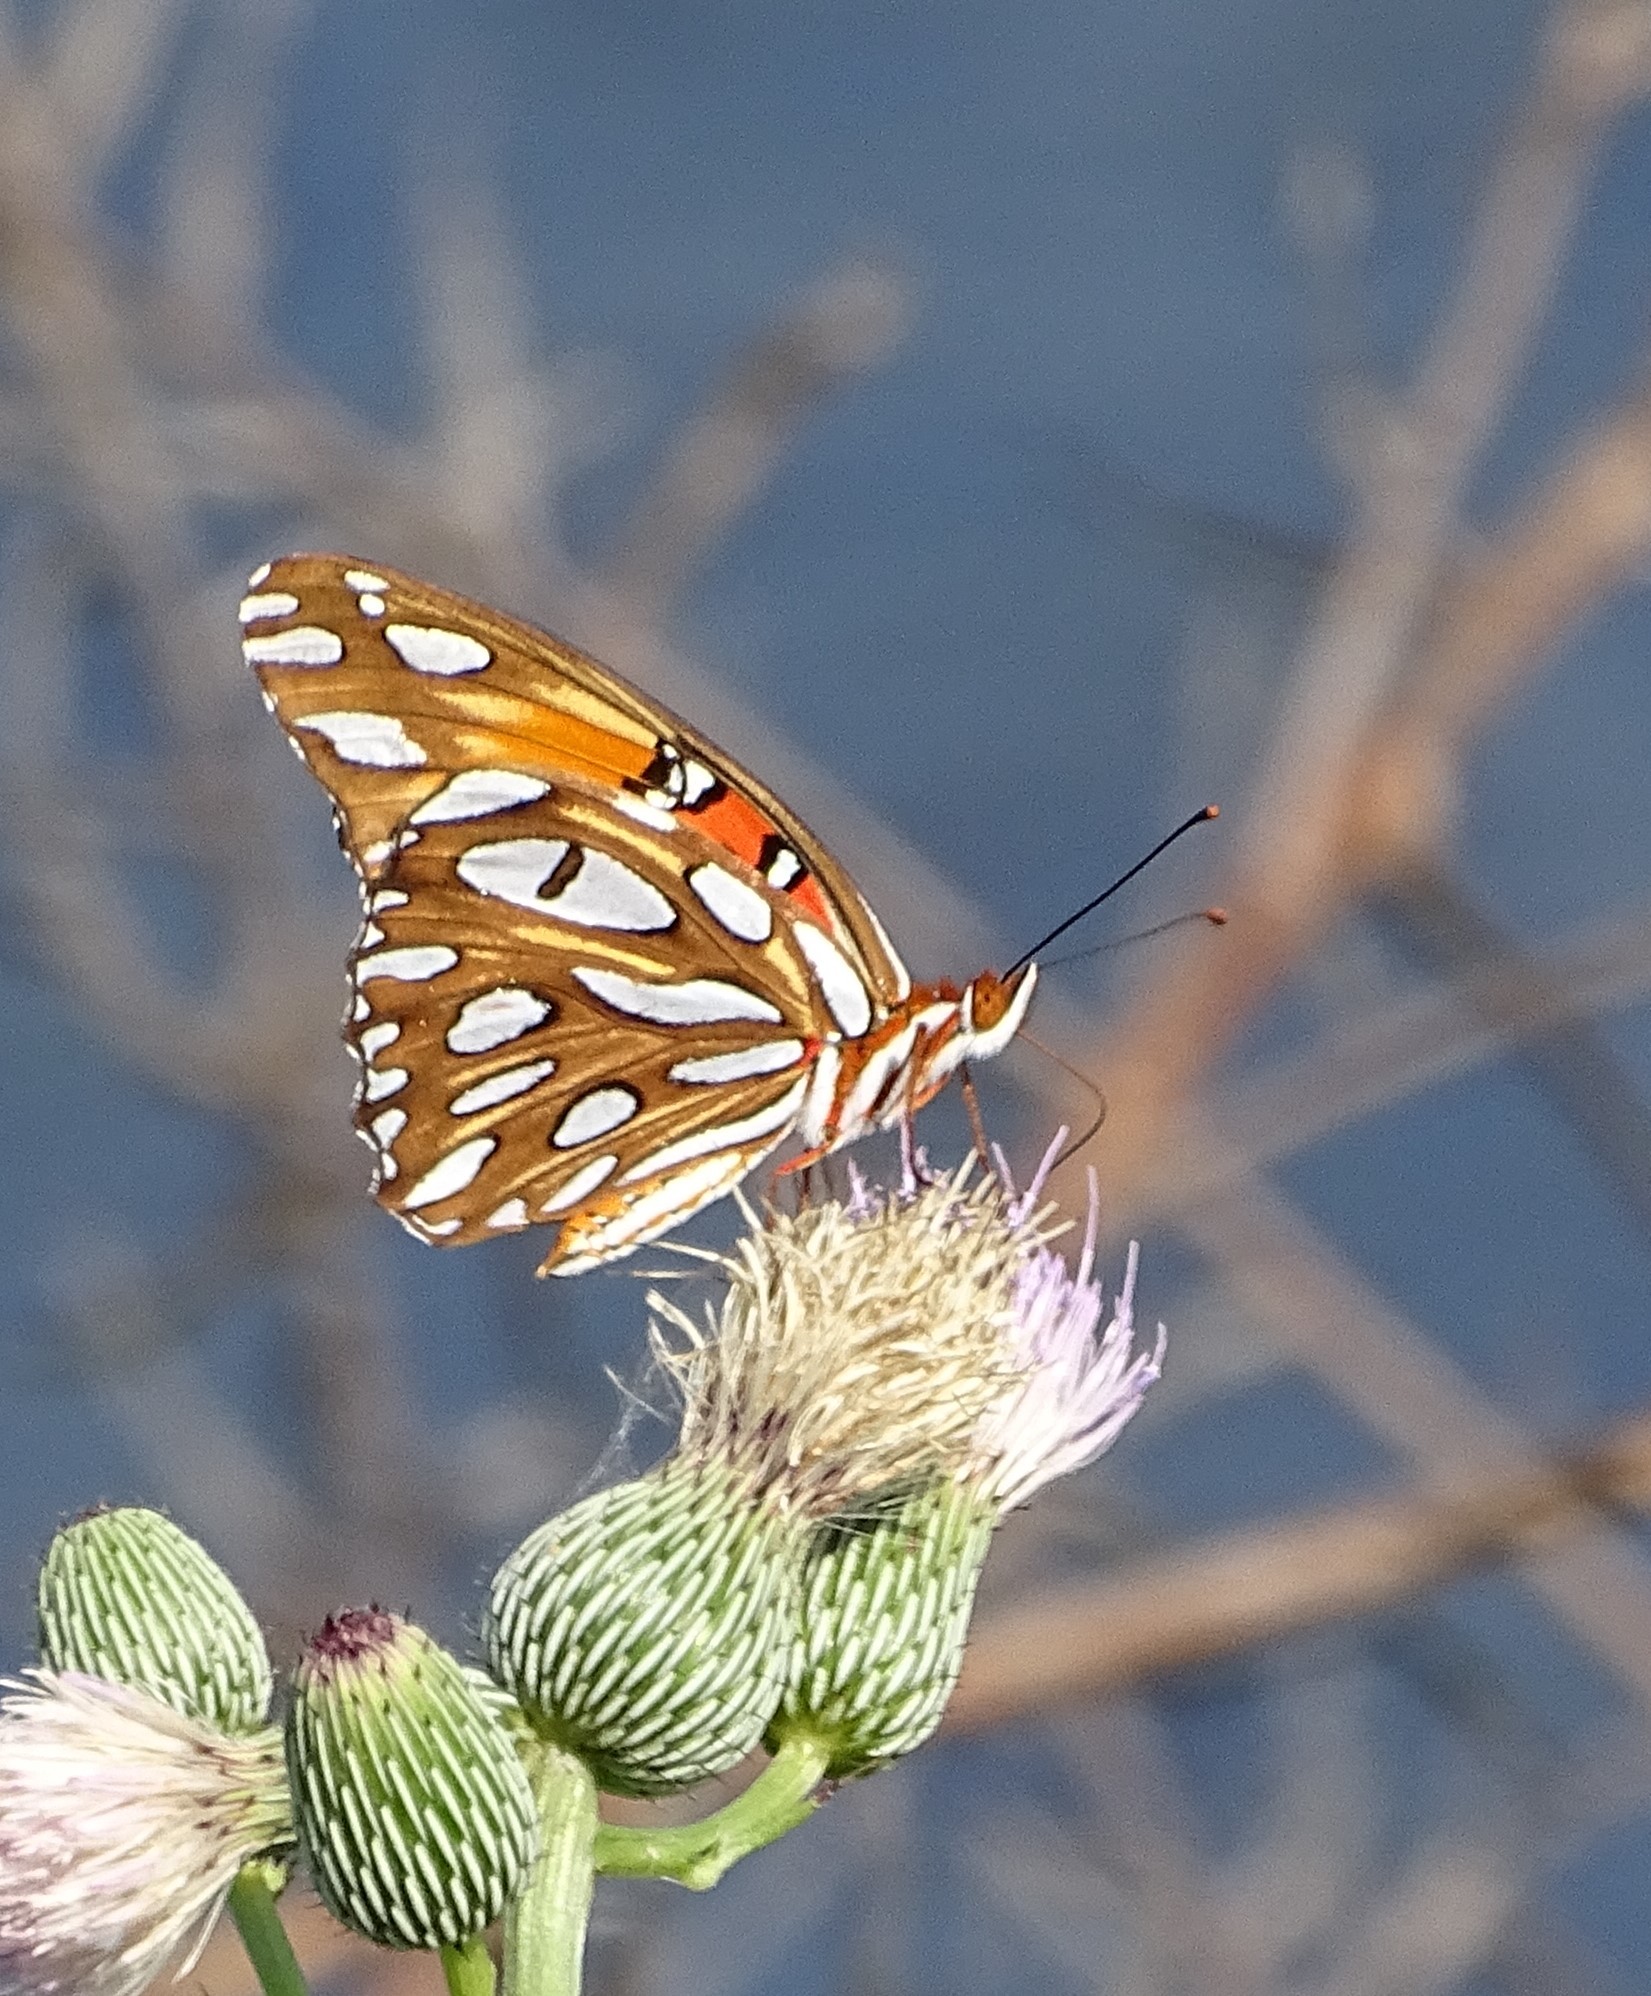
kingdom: Animalia
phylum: Arthropoda
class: Insecta
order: Lepidoptera
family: Nymphalidae
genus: Dione
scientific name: Dione vanillae
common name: Gulf fritillary
